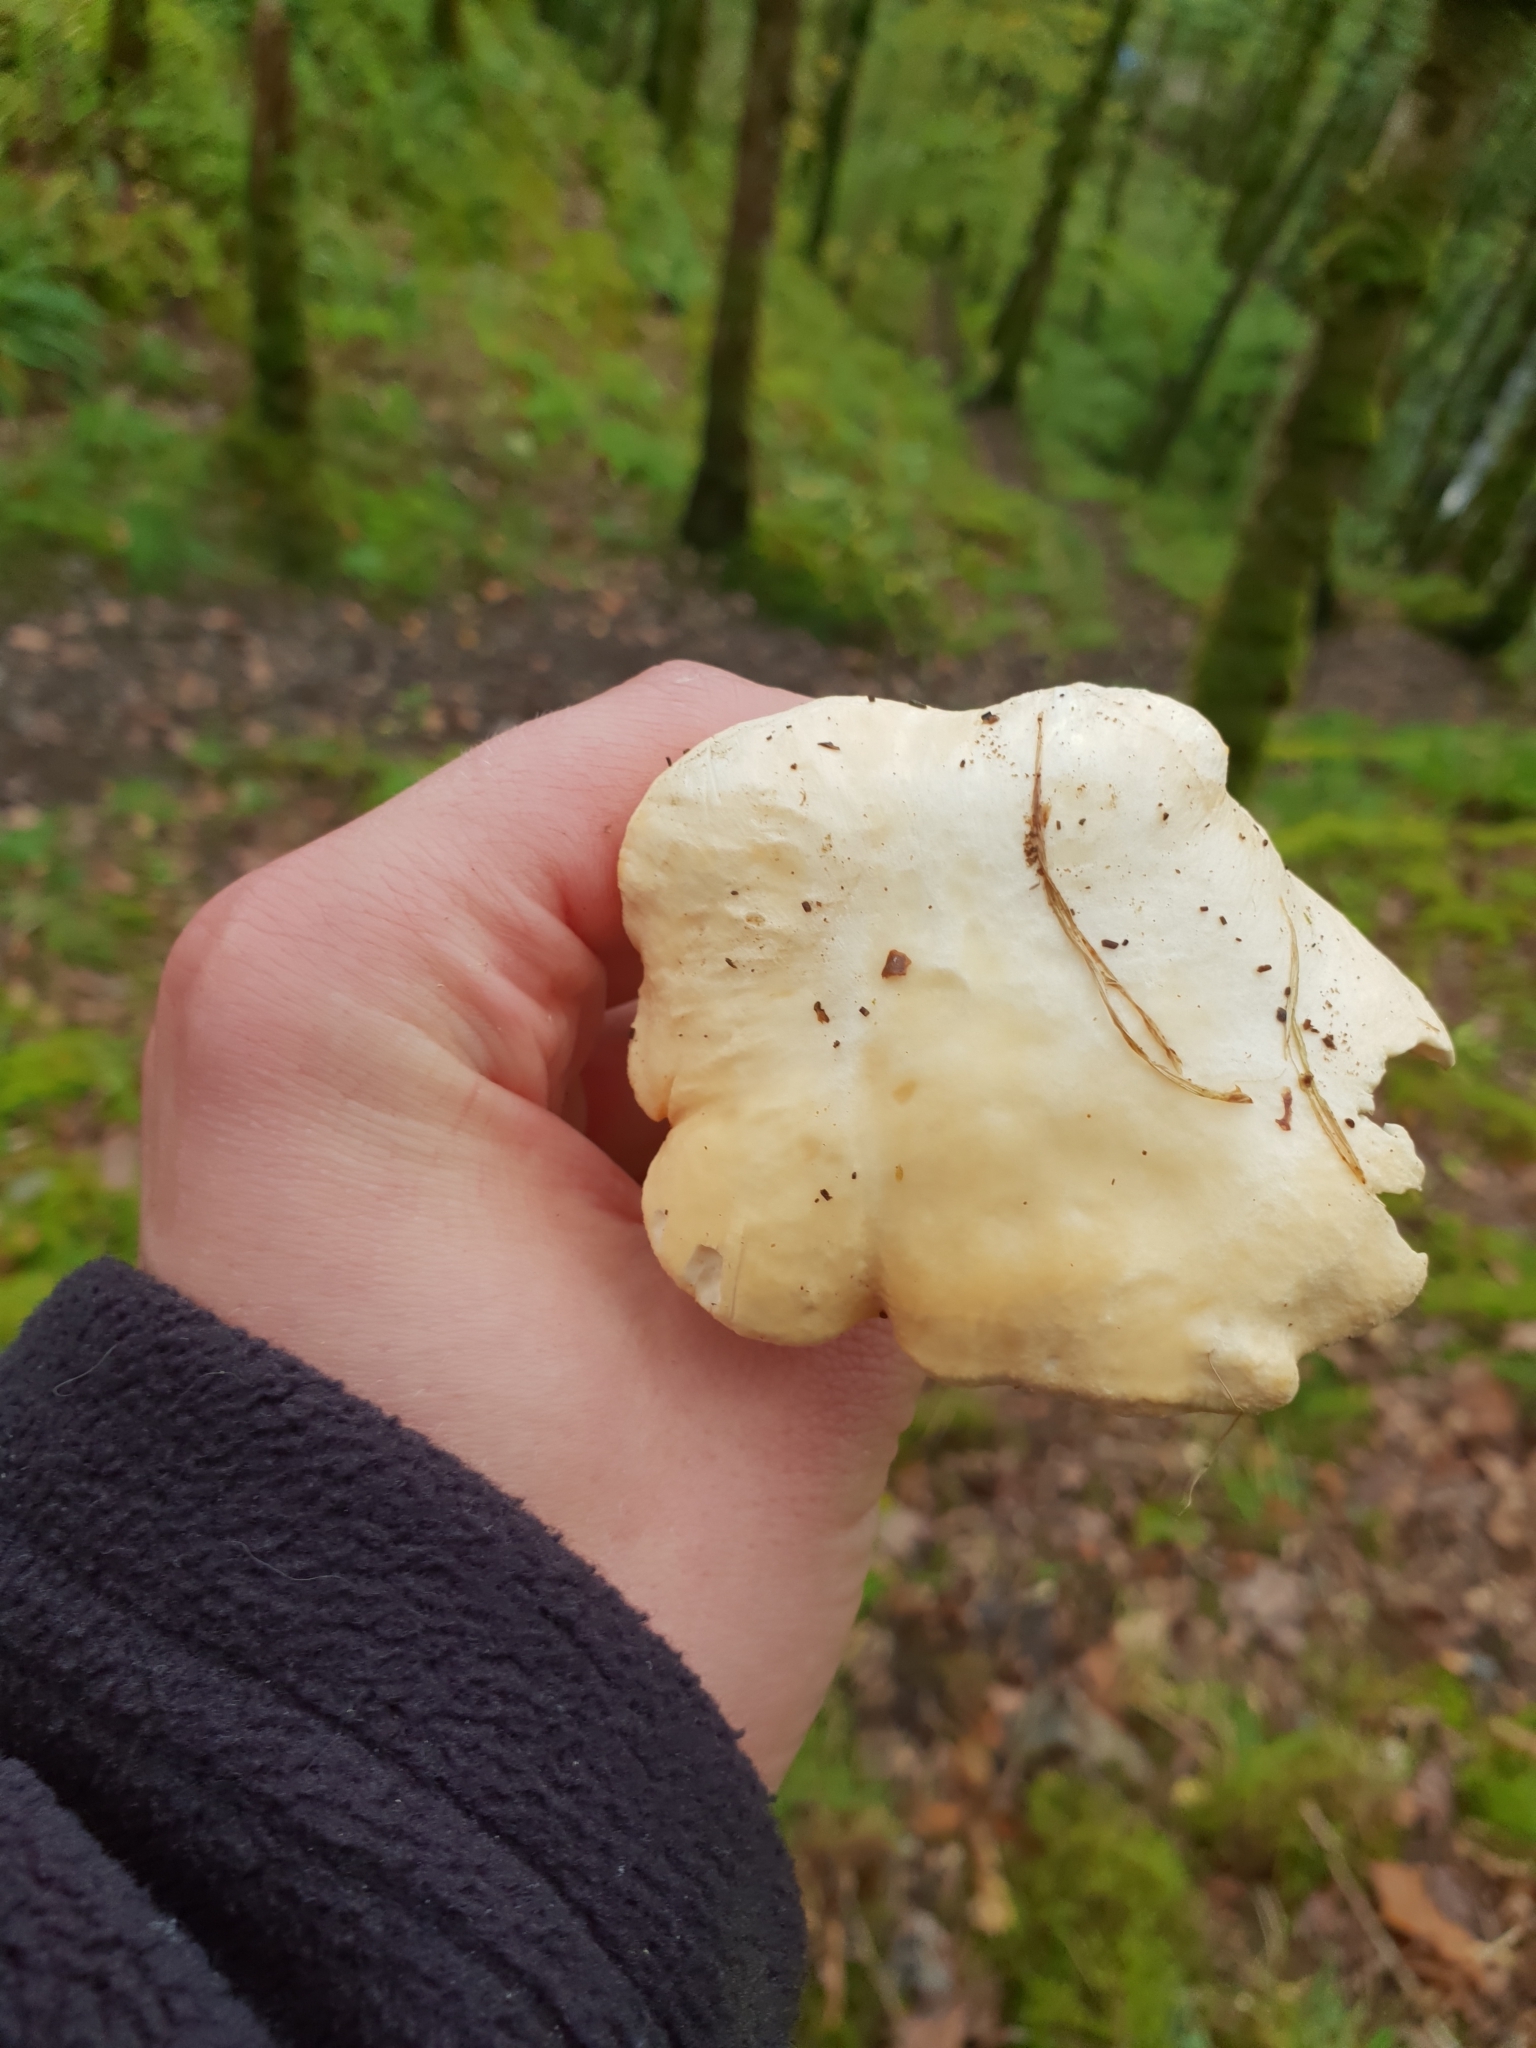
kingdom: Fungi
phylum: Basidiomycota
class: Agaricomycetes
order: Cantharellales
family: Hydnaceae
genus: Hydnum
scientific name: Hydnum repandum
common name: Wood hedgehog
